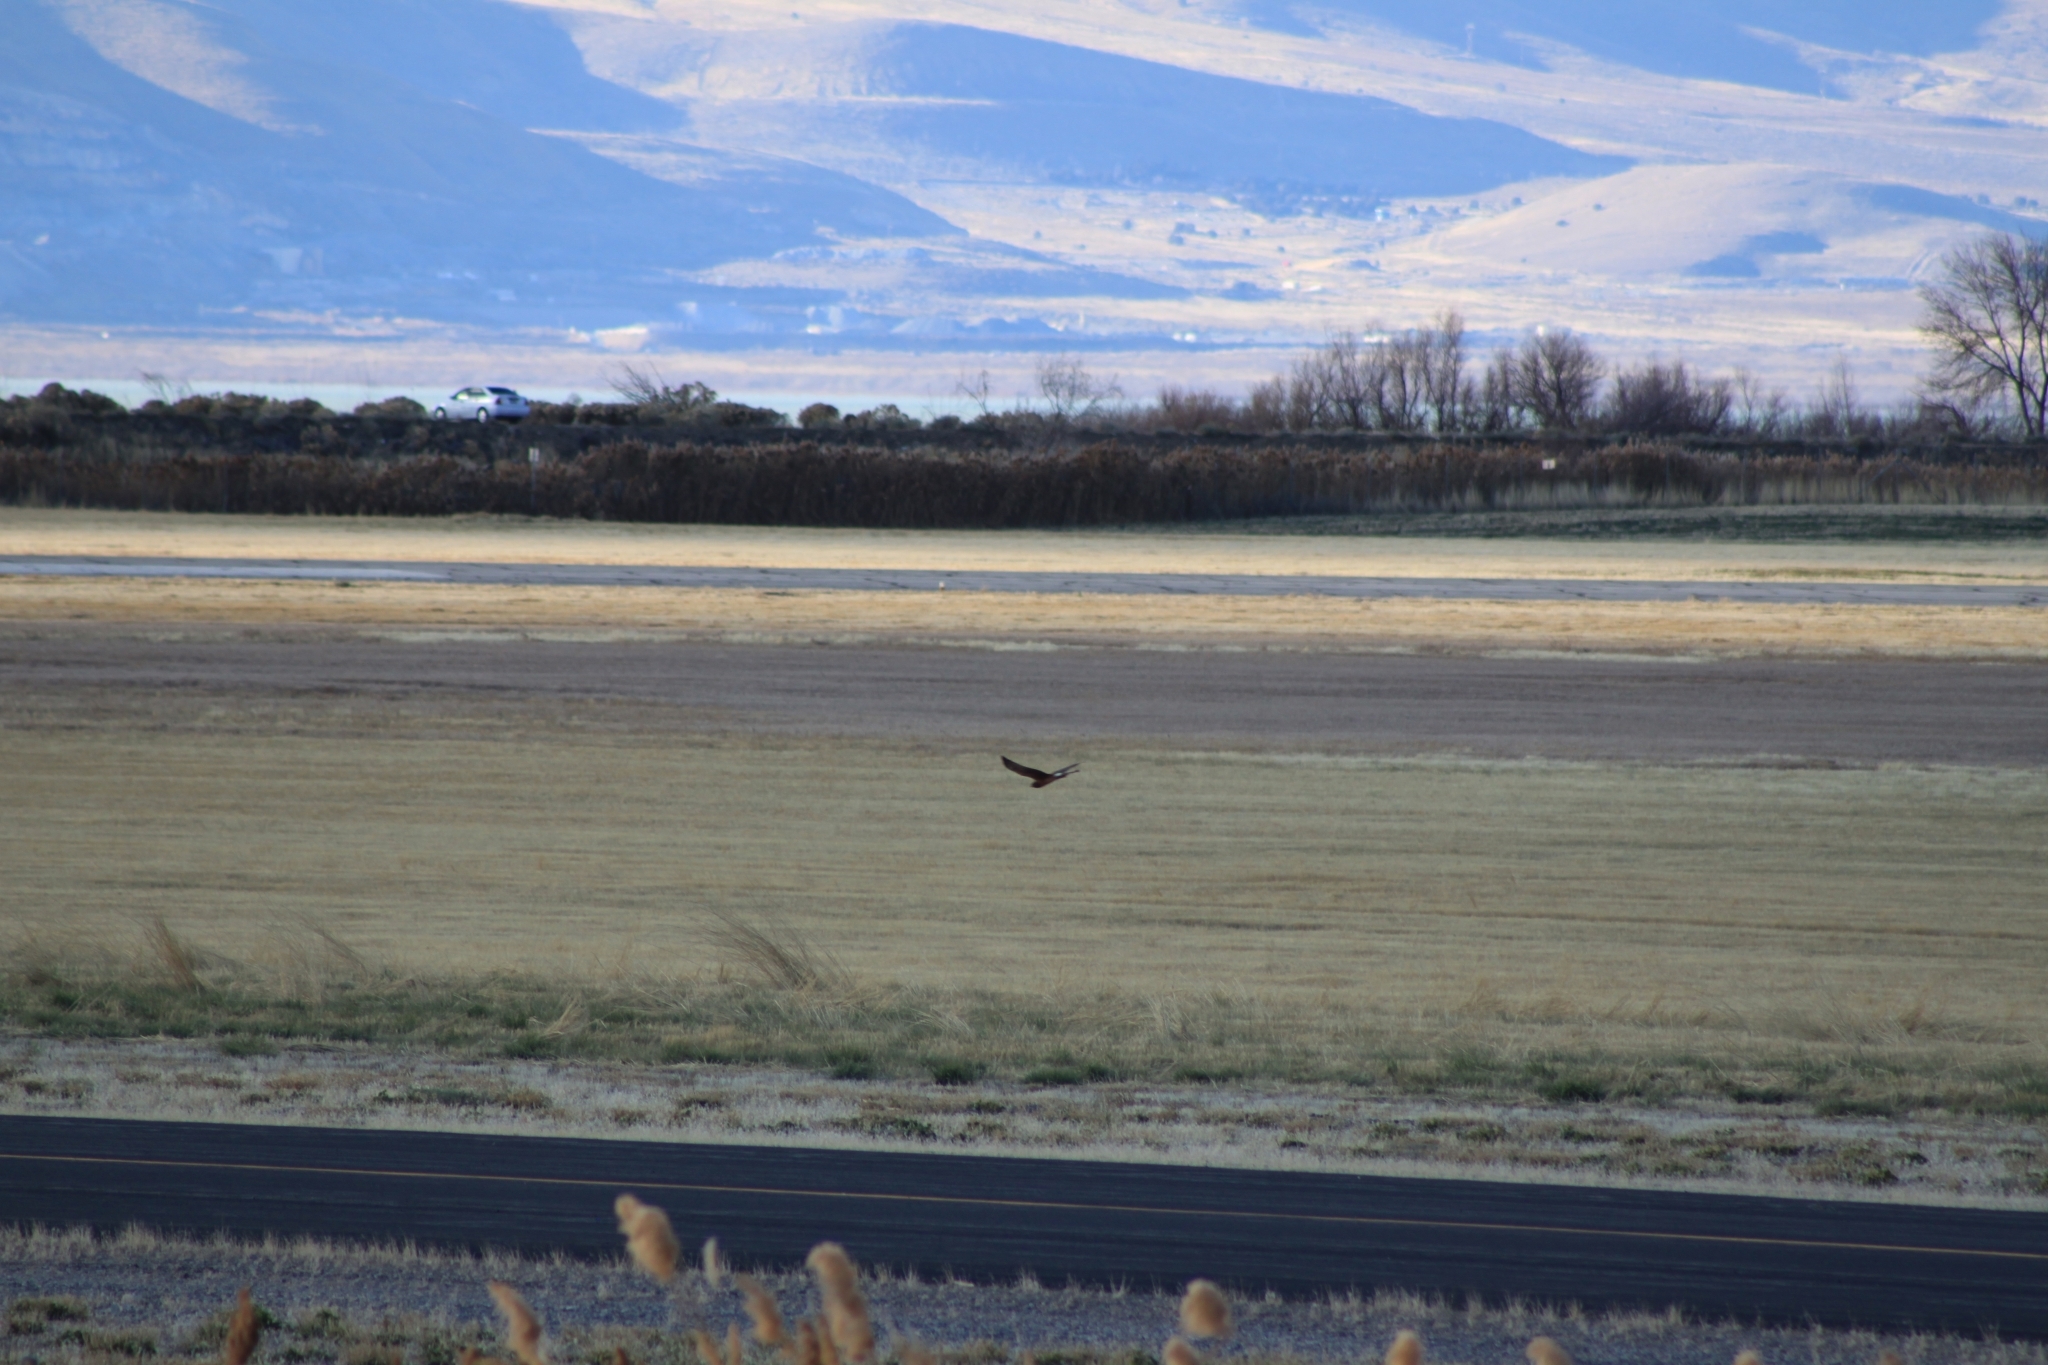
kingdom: Animalia
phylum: Chordata
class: Aves
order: Accipitriformes
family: Accipitridae
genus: Circus
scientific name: Circus cyaneus
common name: Hen harrier
